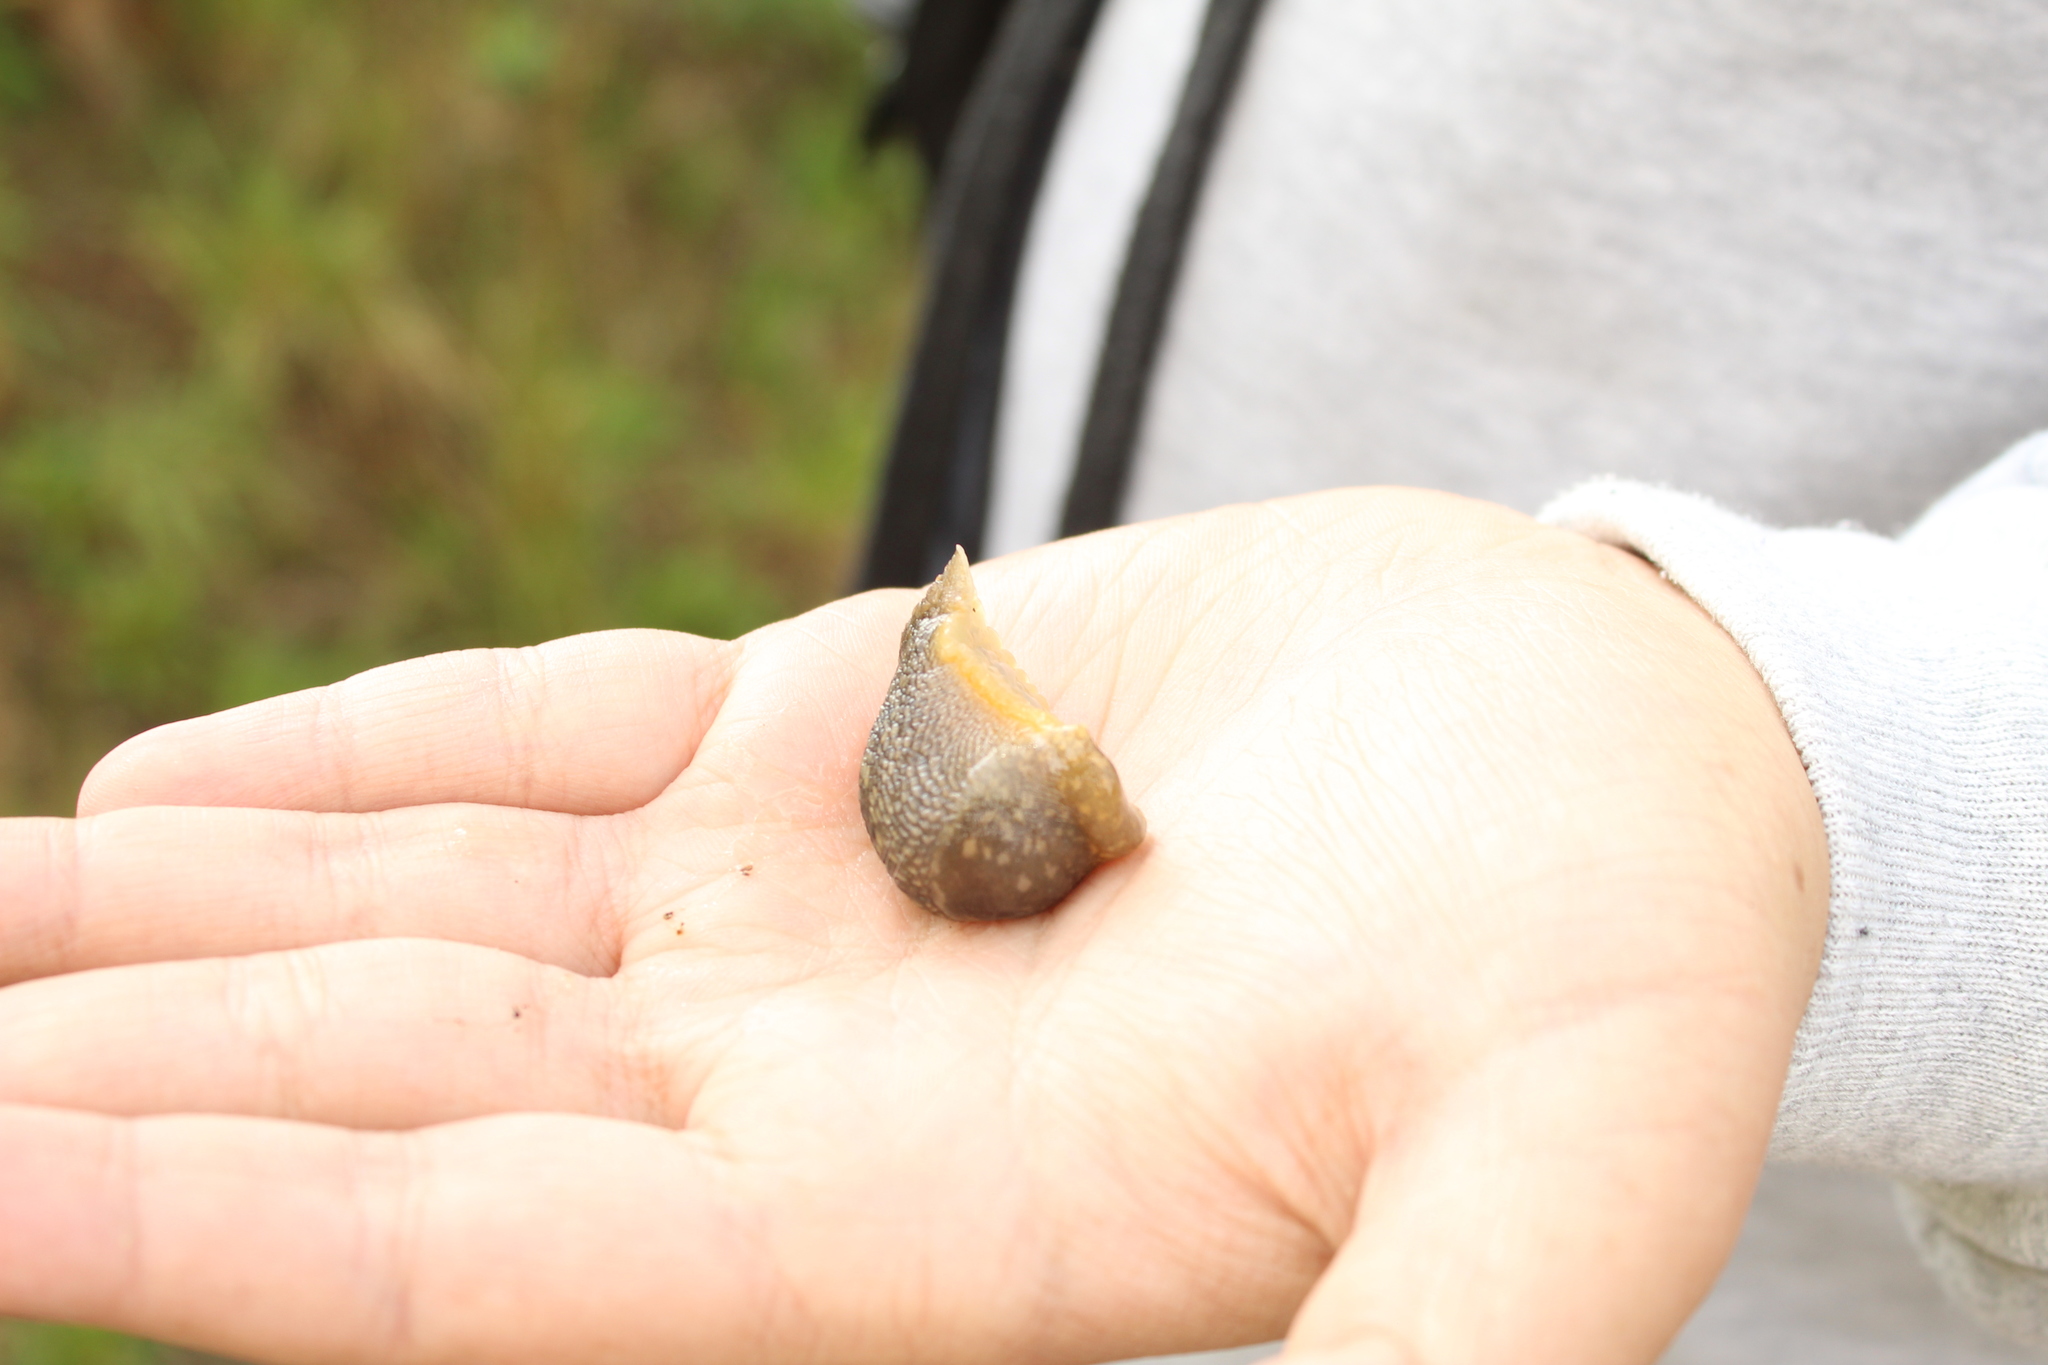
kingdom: Animalia
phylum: Mollusca
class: Gastropoda
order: Stylommatophora
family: Limacidae
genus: Limacus
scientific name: Limacus flavus
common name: Yellow gardenslug
